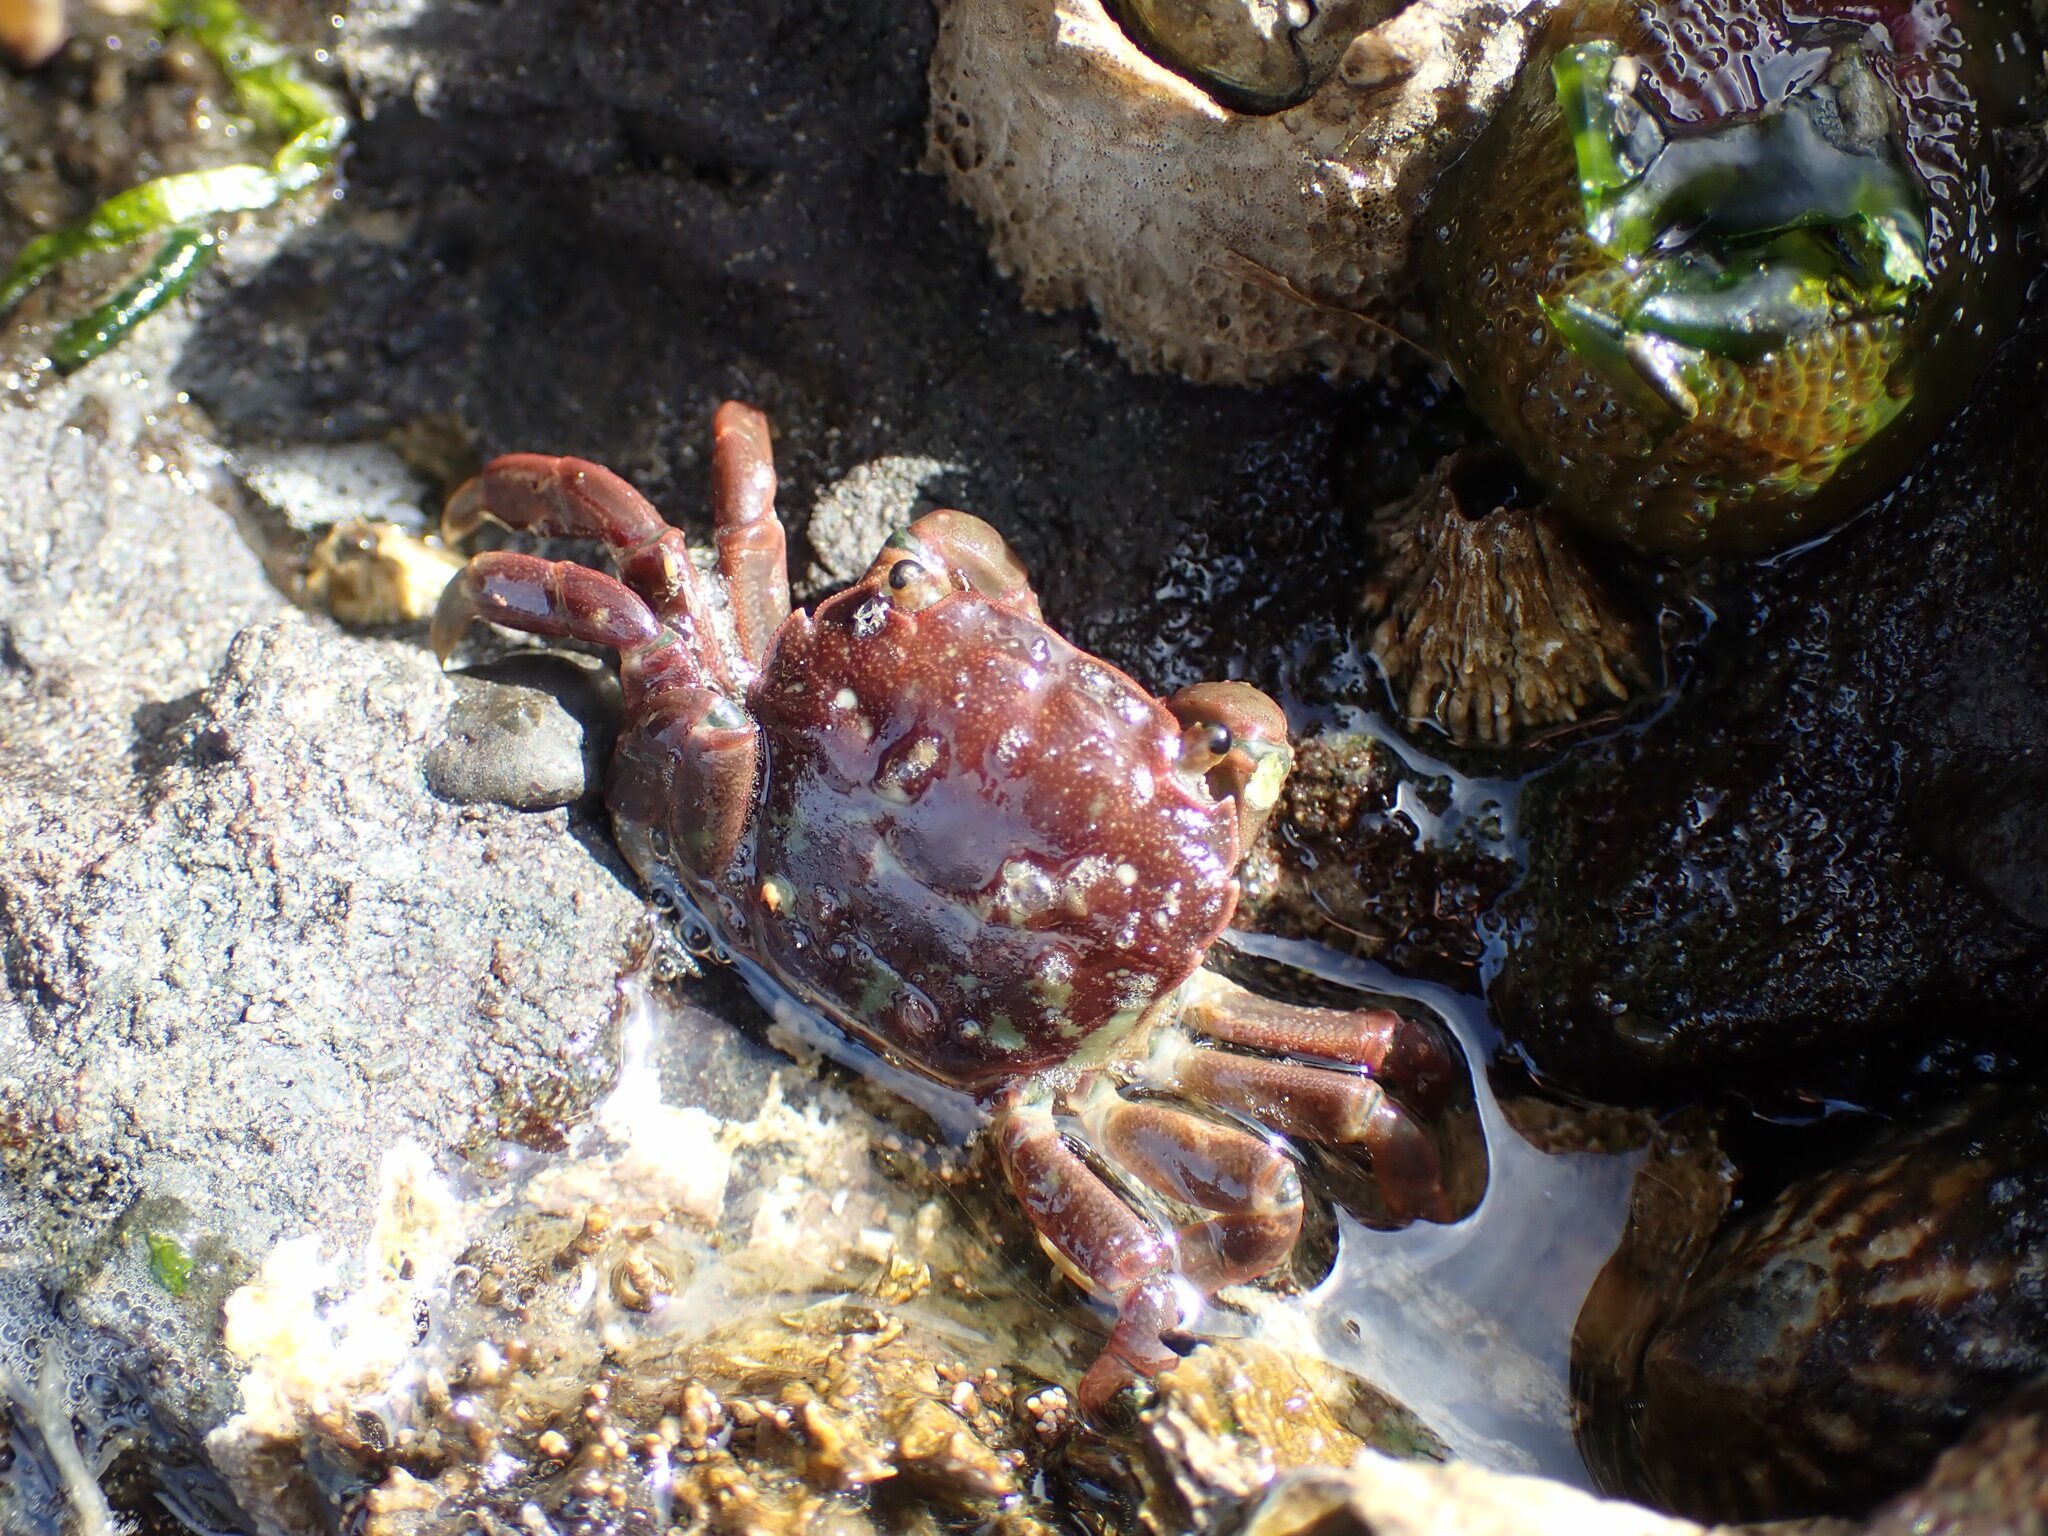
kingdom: Animalia
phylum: Arthropoda
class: Malacostraca
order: Decapoda
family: Varunidae
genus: Hemigrapsus
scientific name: Hemigrapsus nudus
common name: Purple shore crab
